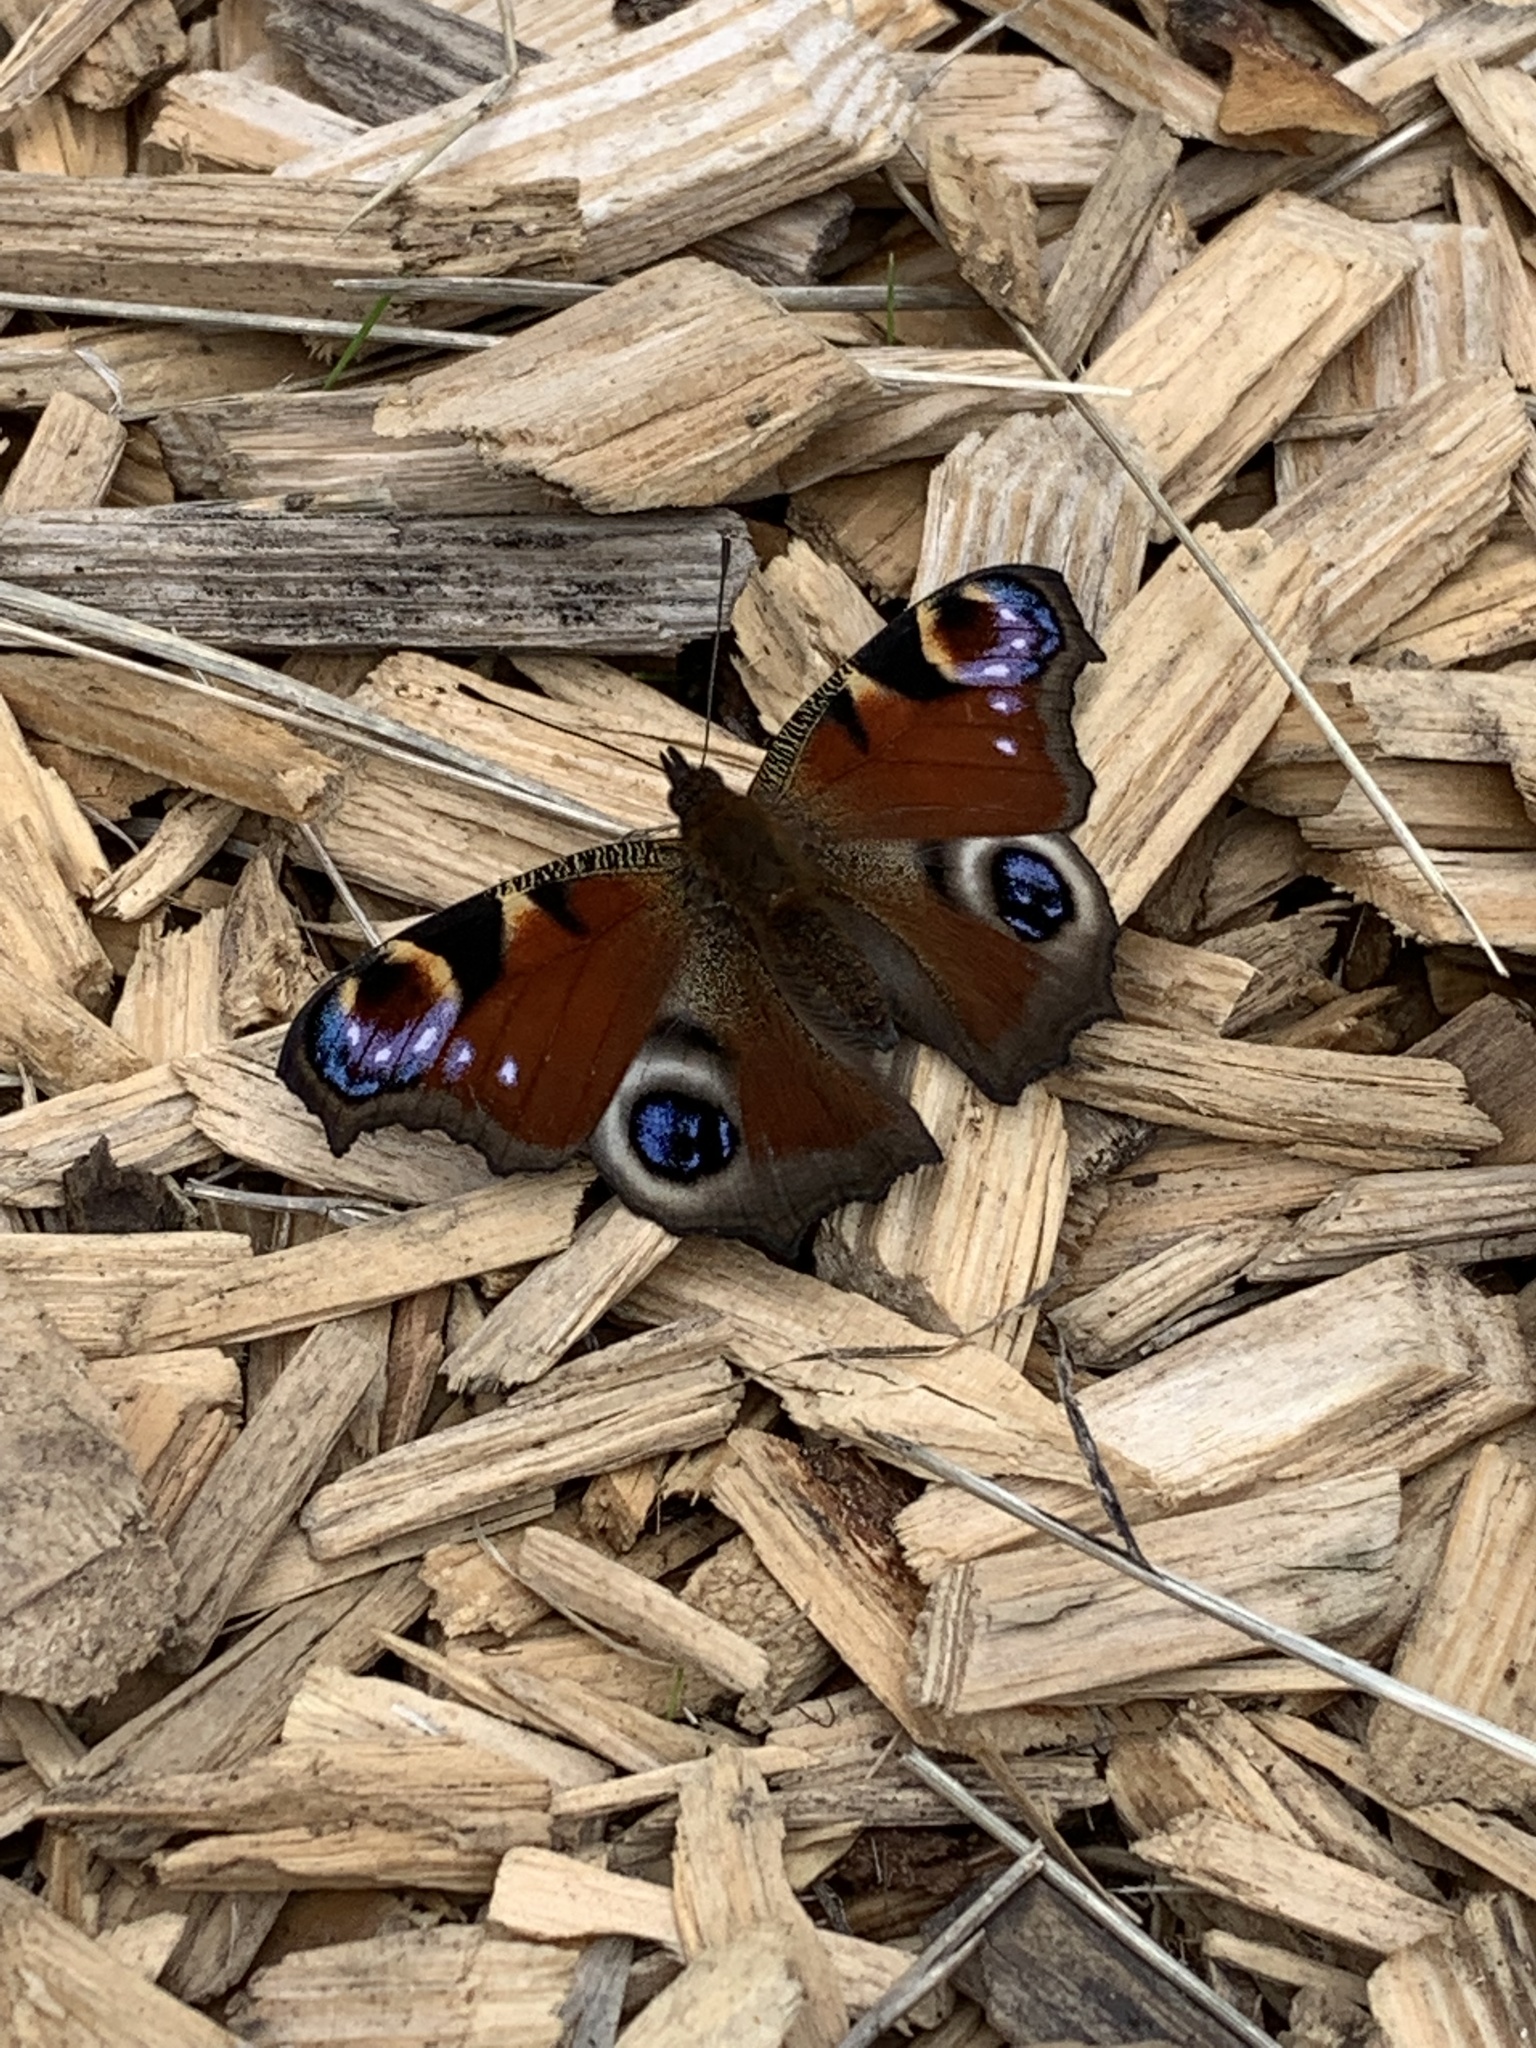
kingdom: Animalia
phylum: Arthropoda
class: Insecta
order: Lepidoptera
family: Nymphalidae
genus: Aglais
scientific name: Aglais io
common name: Peacock
